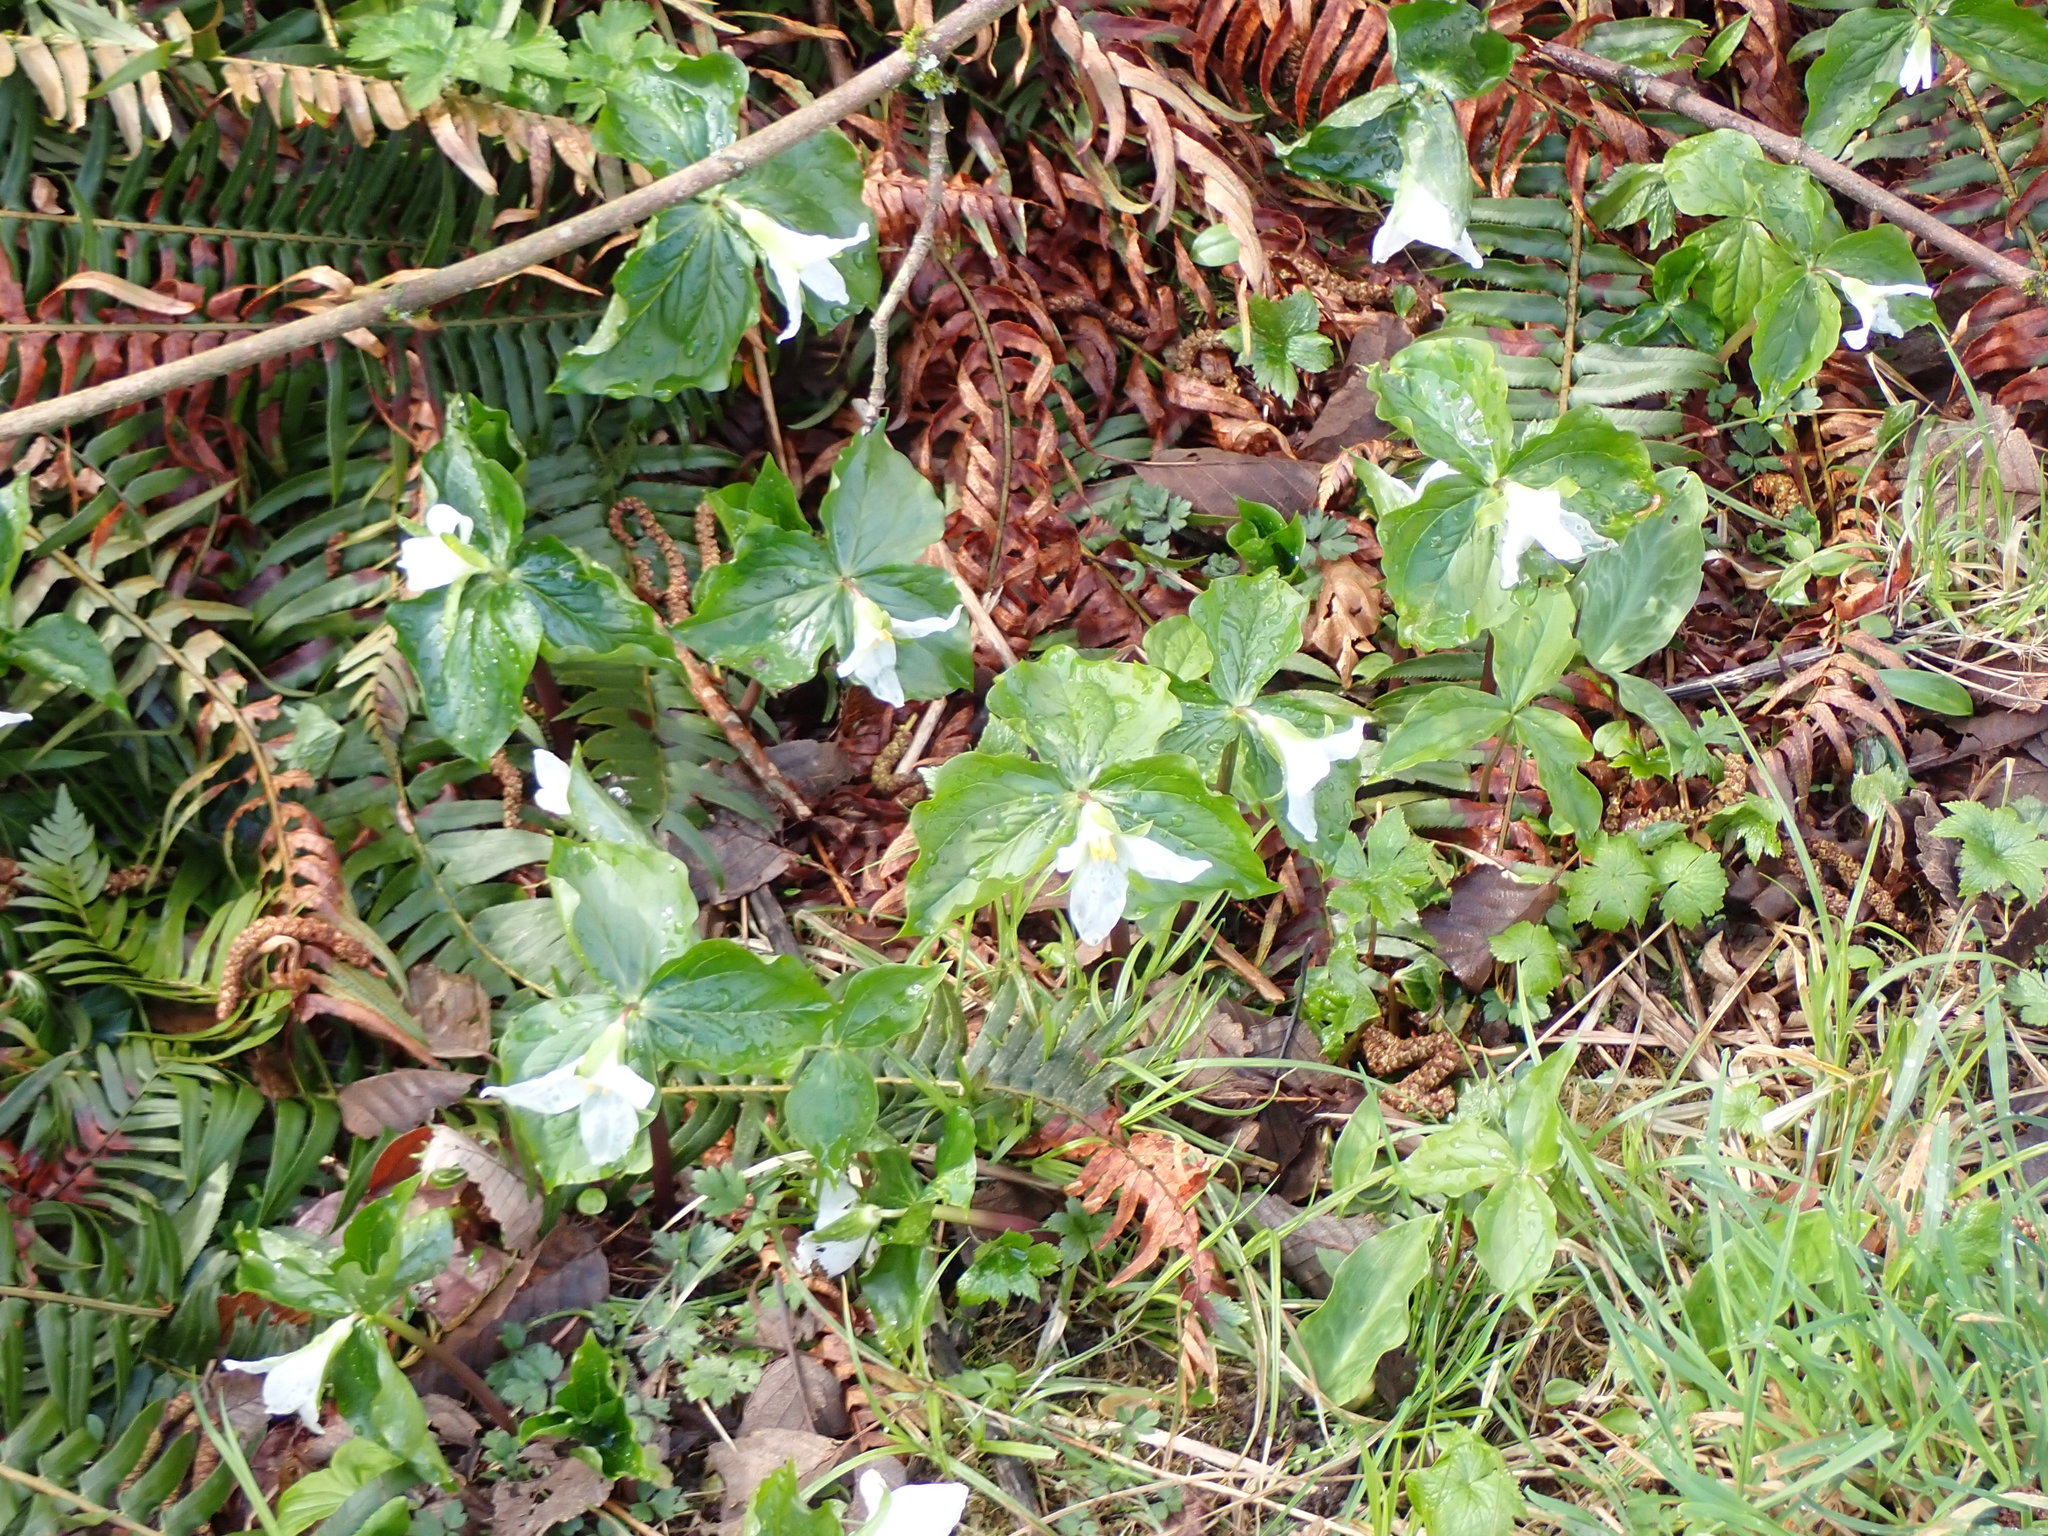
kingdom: Plantae
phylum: Tracheophyta
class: Liliopsida
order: Liliales
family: Melanthiaceae
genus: Trillium
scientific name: Trillium ovatum
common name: Pacific trillium
